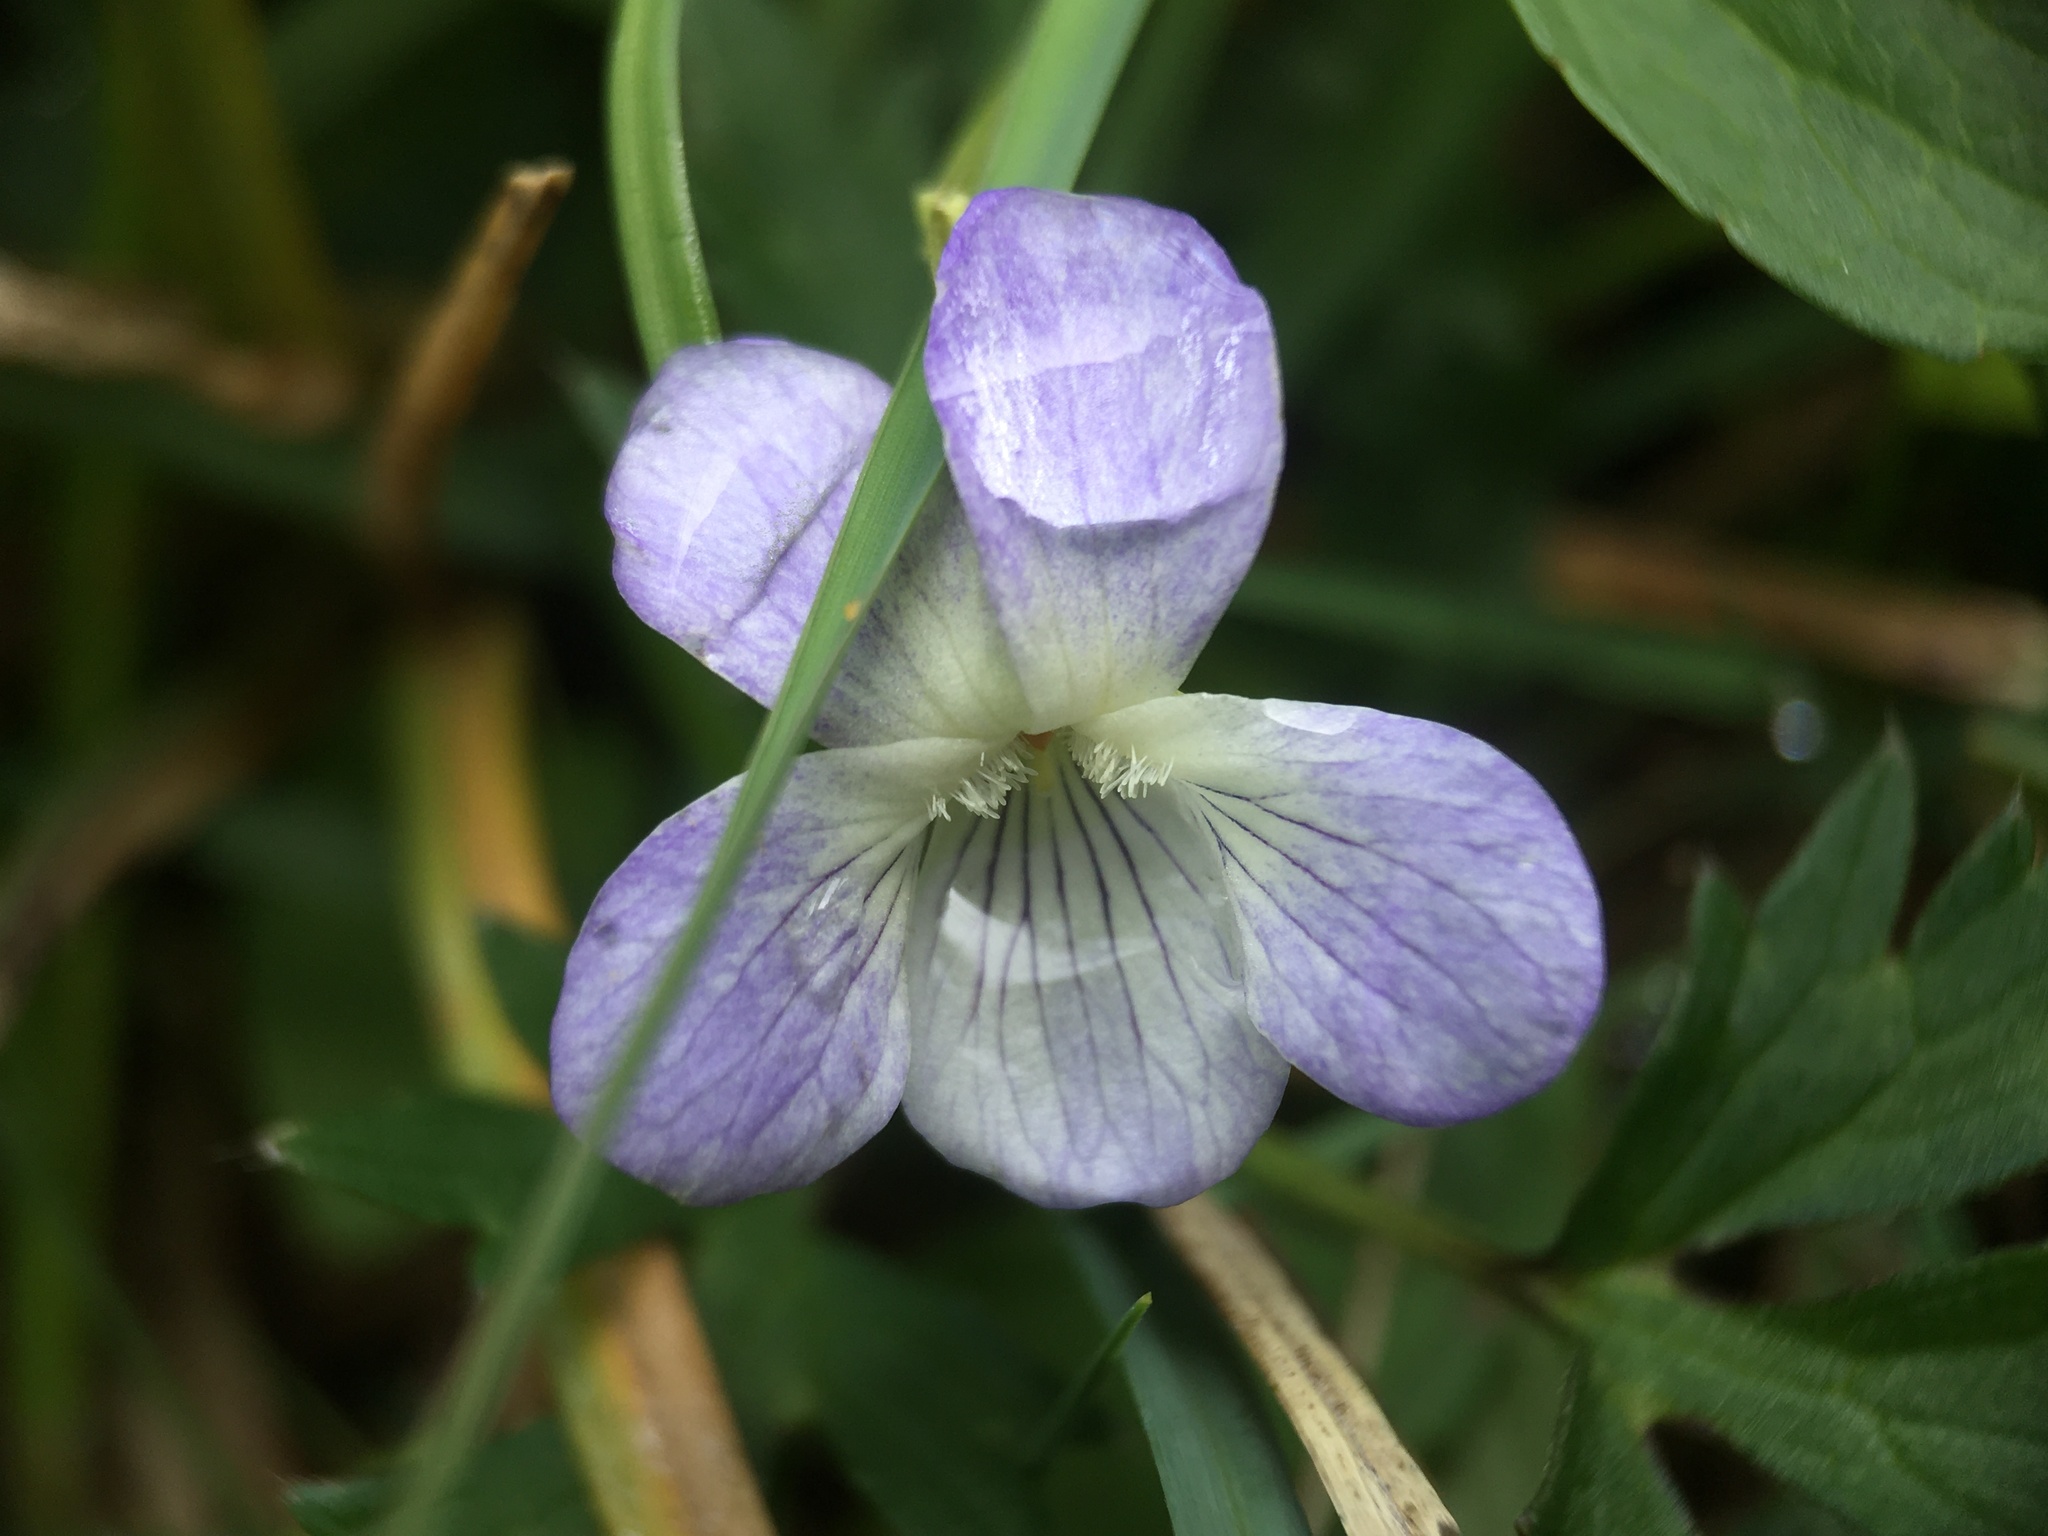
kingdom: Plantae
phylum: Tracheophyta
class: Magnoliopsida
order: Malpighiales
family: Violaceae
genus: Viola
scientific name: Viola stagnina
